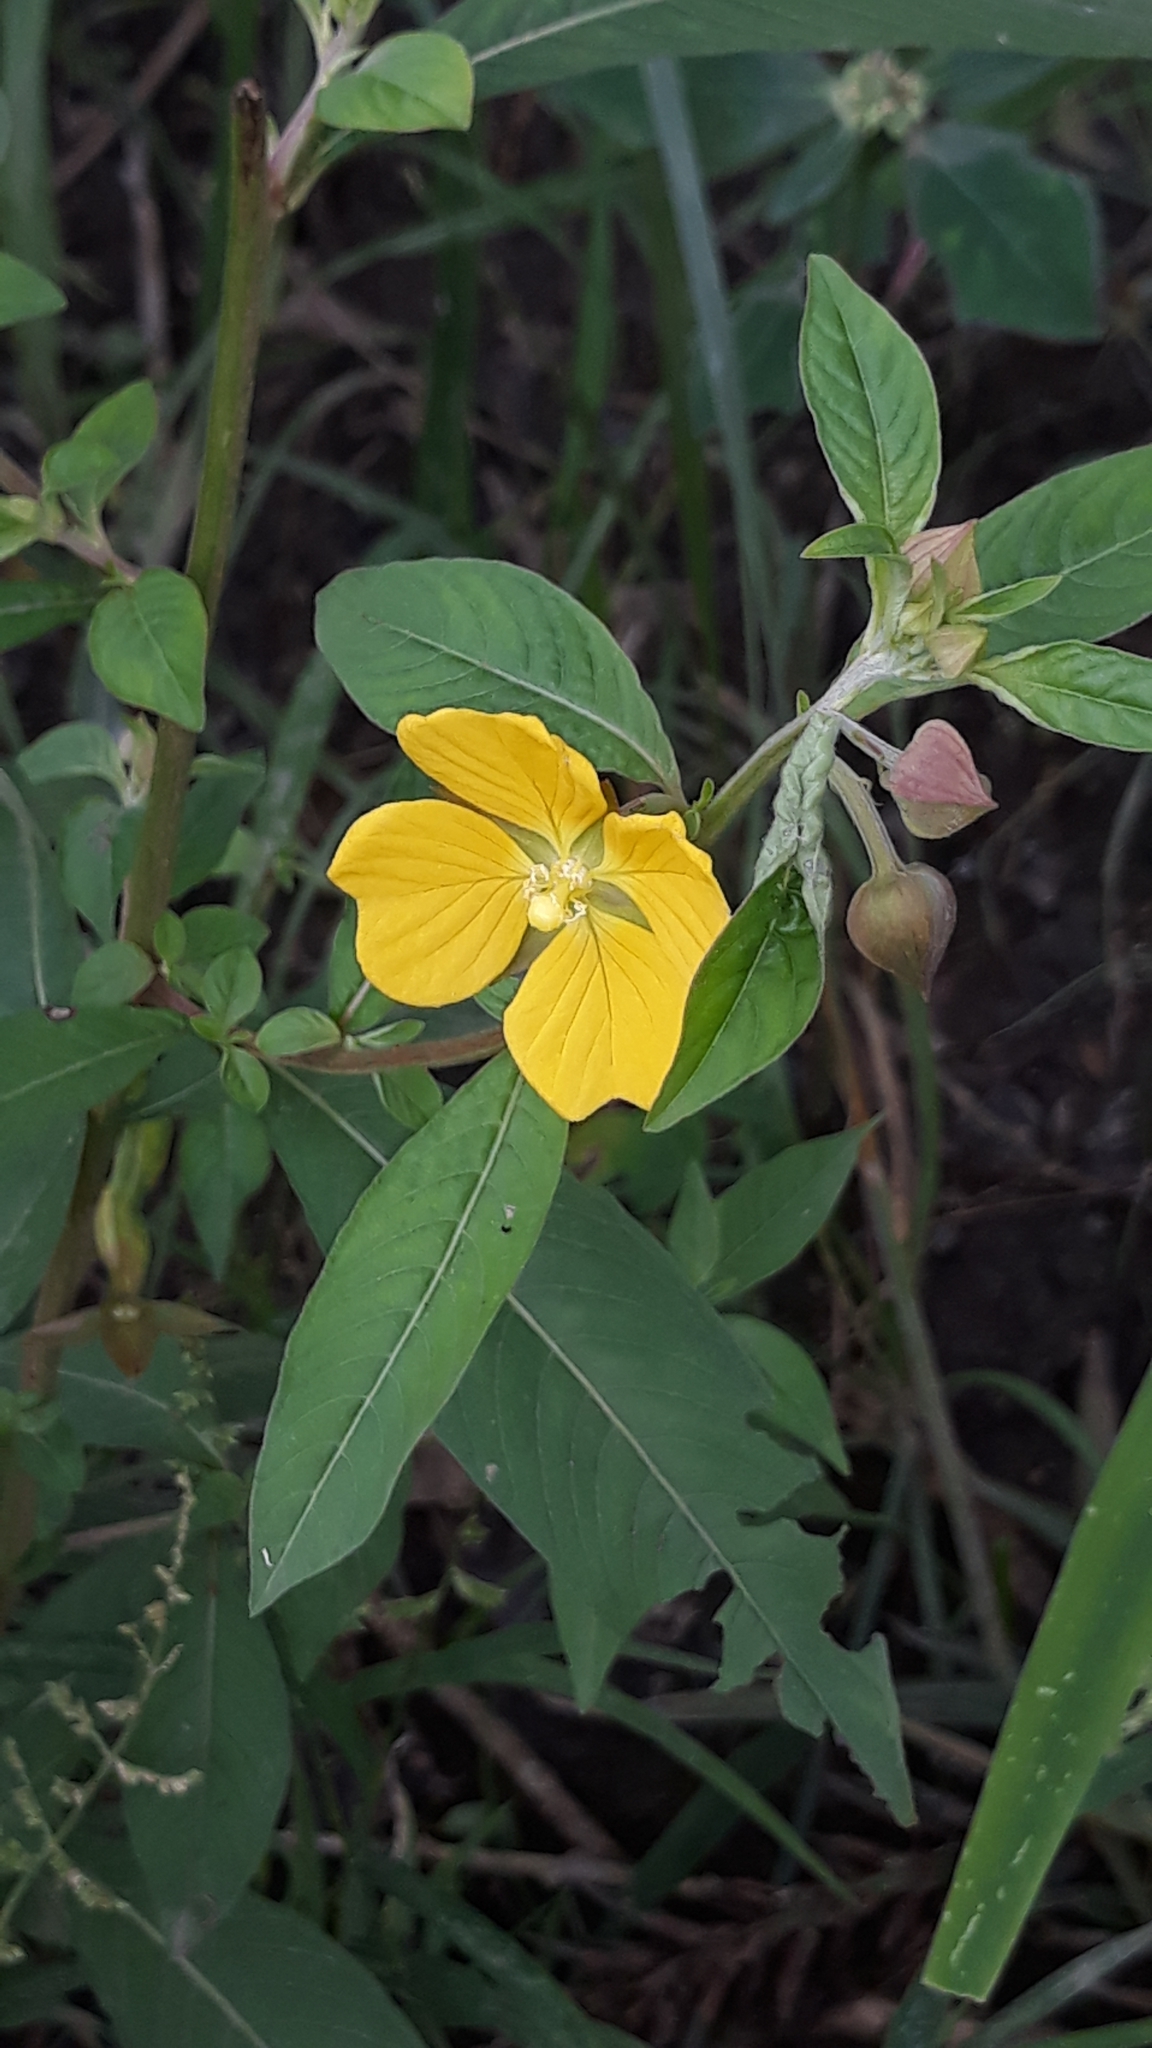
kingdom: Plantae
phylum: Tracheophyta
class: Magnoliopsida
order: Myrtales
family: Onagraceae
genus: Ludwigia
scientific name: Ludwigia octovalvis
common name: Water-primrose
